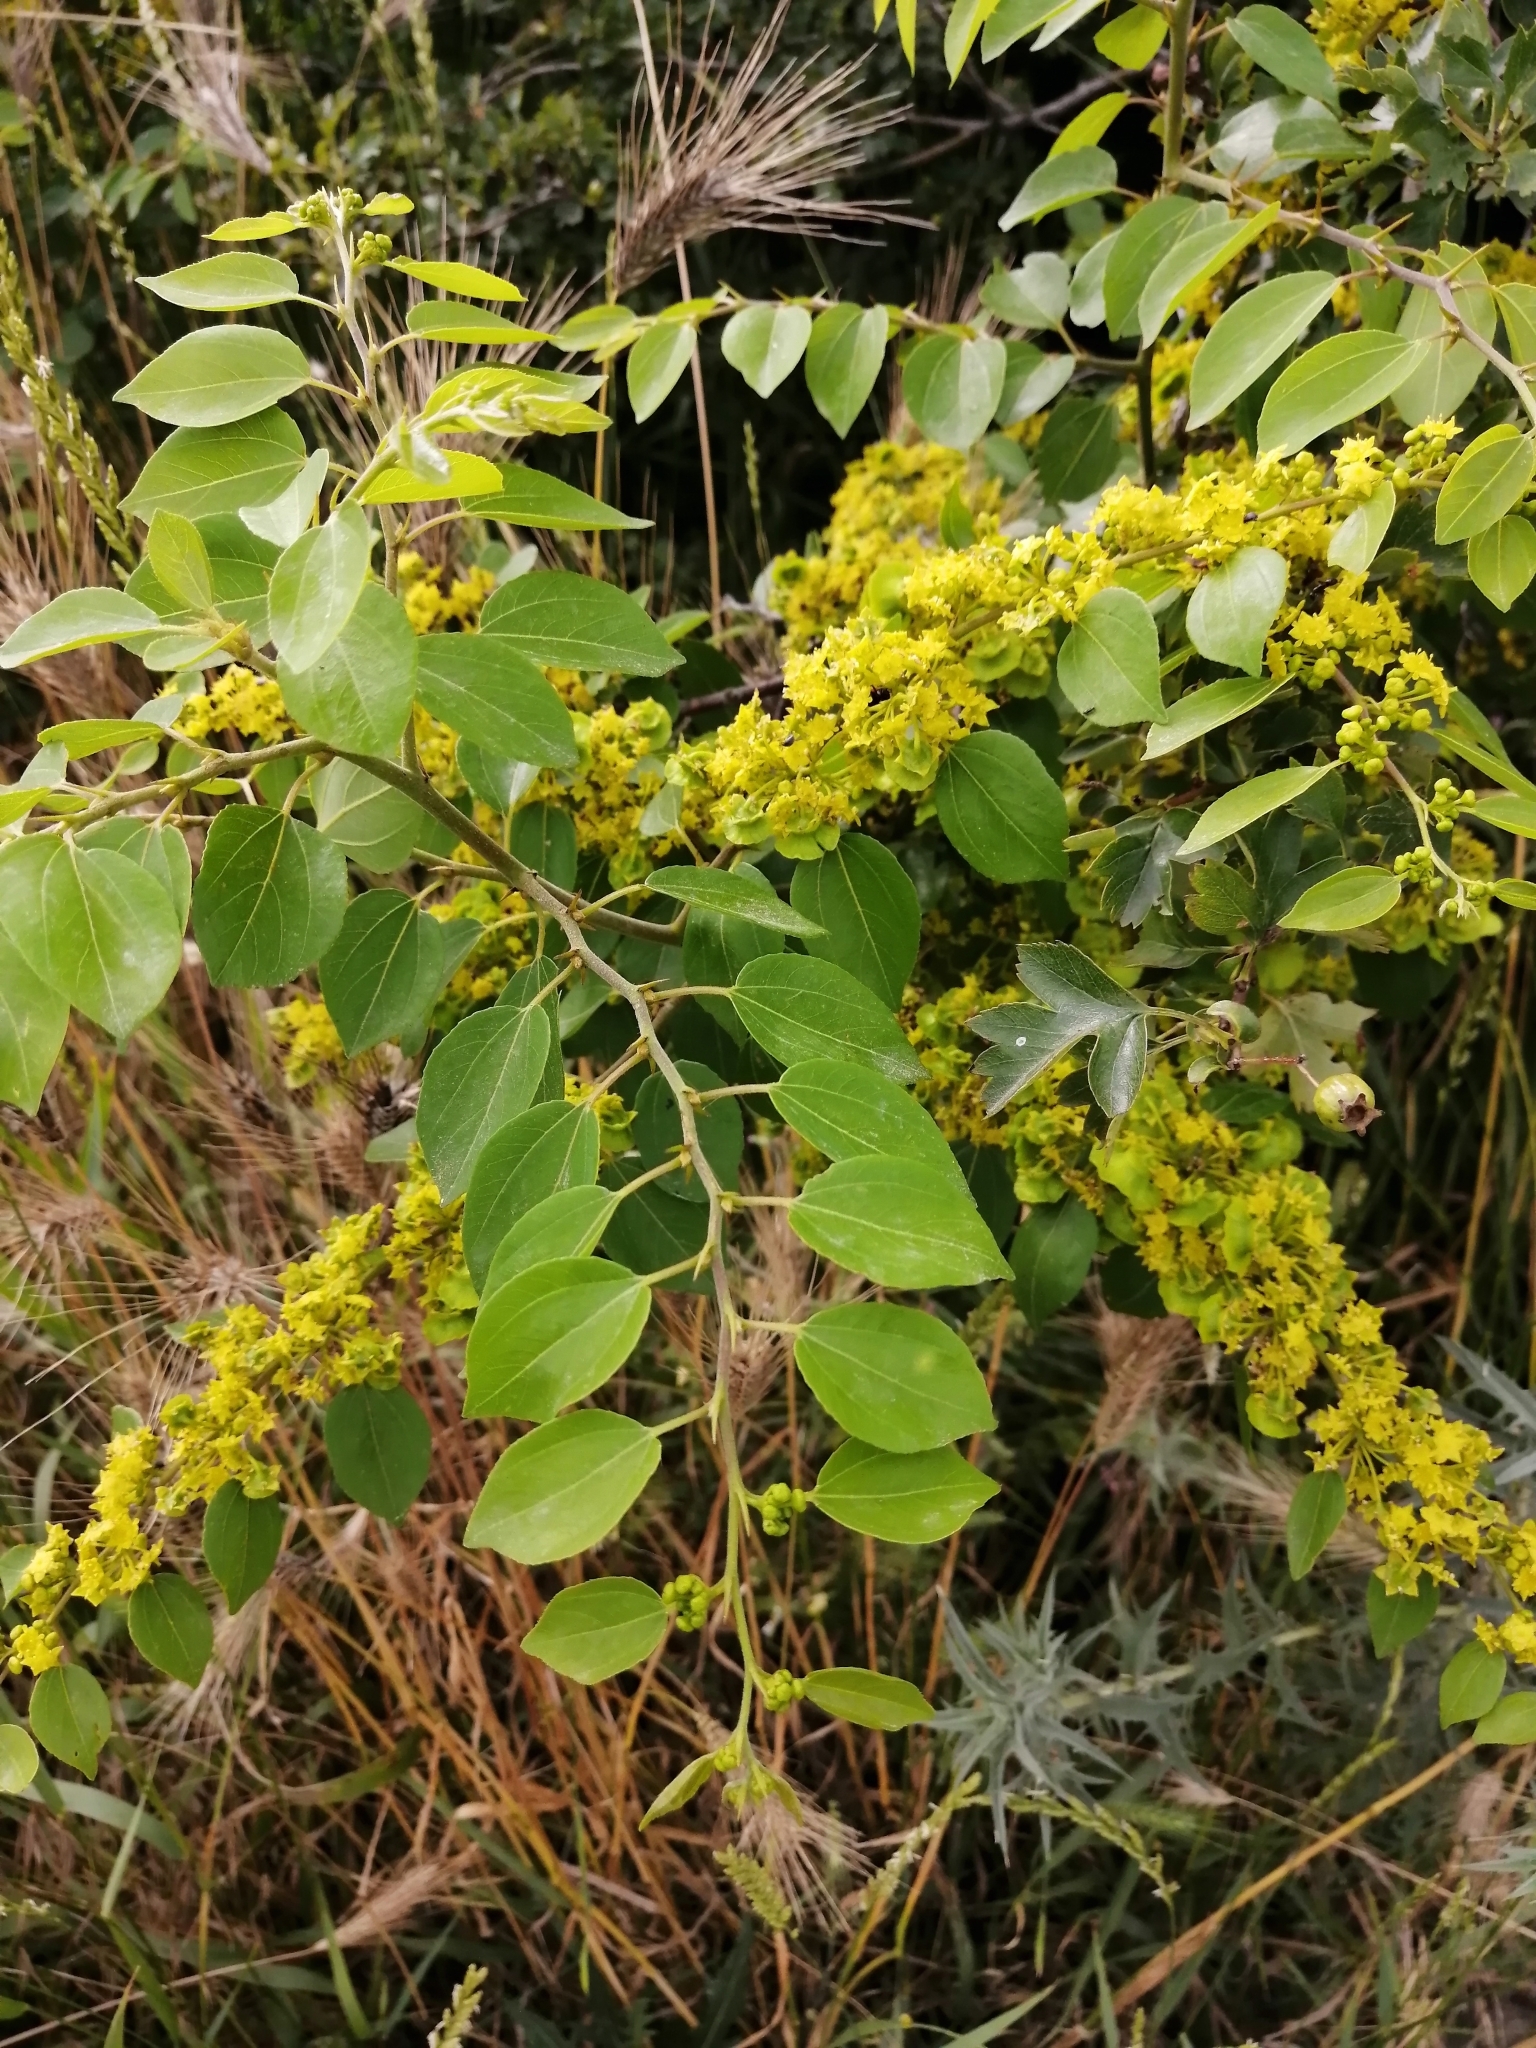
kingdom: Plantae
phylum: Tracheophyta
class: Magnoliopsida
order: Rosales
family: Rhamnaceae
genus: Paliurus
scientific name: Paliurus spina-christi
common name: Jeruselem thorn
